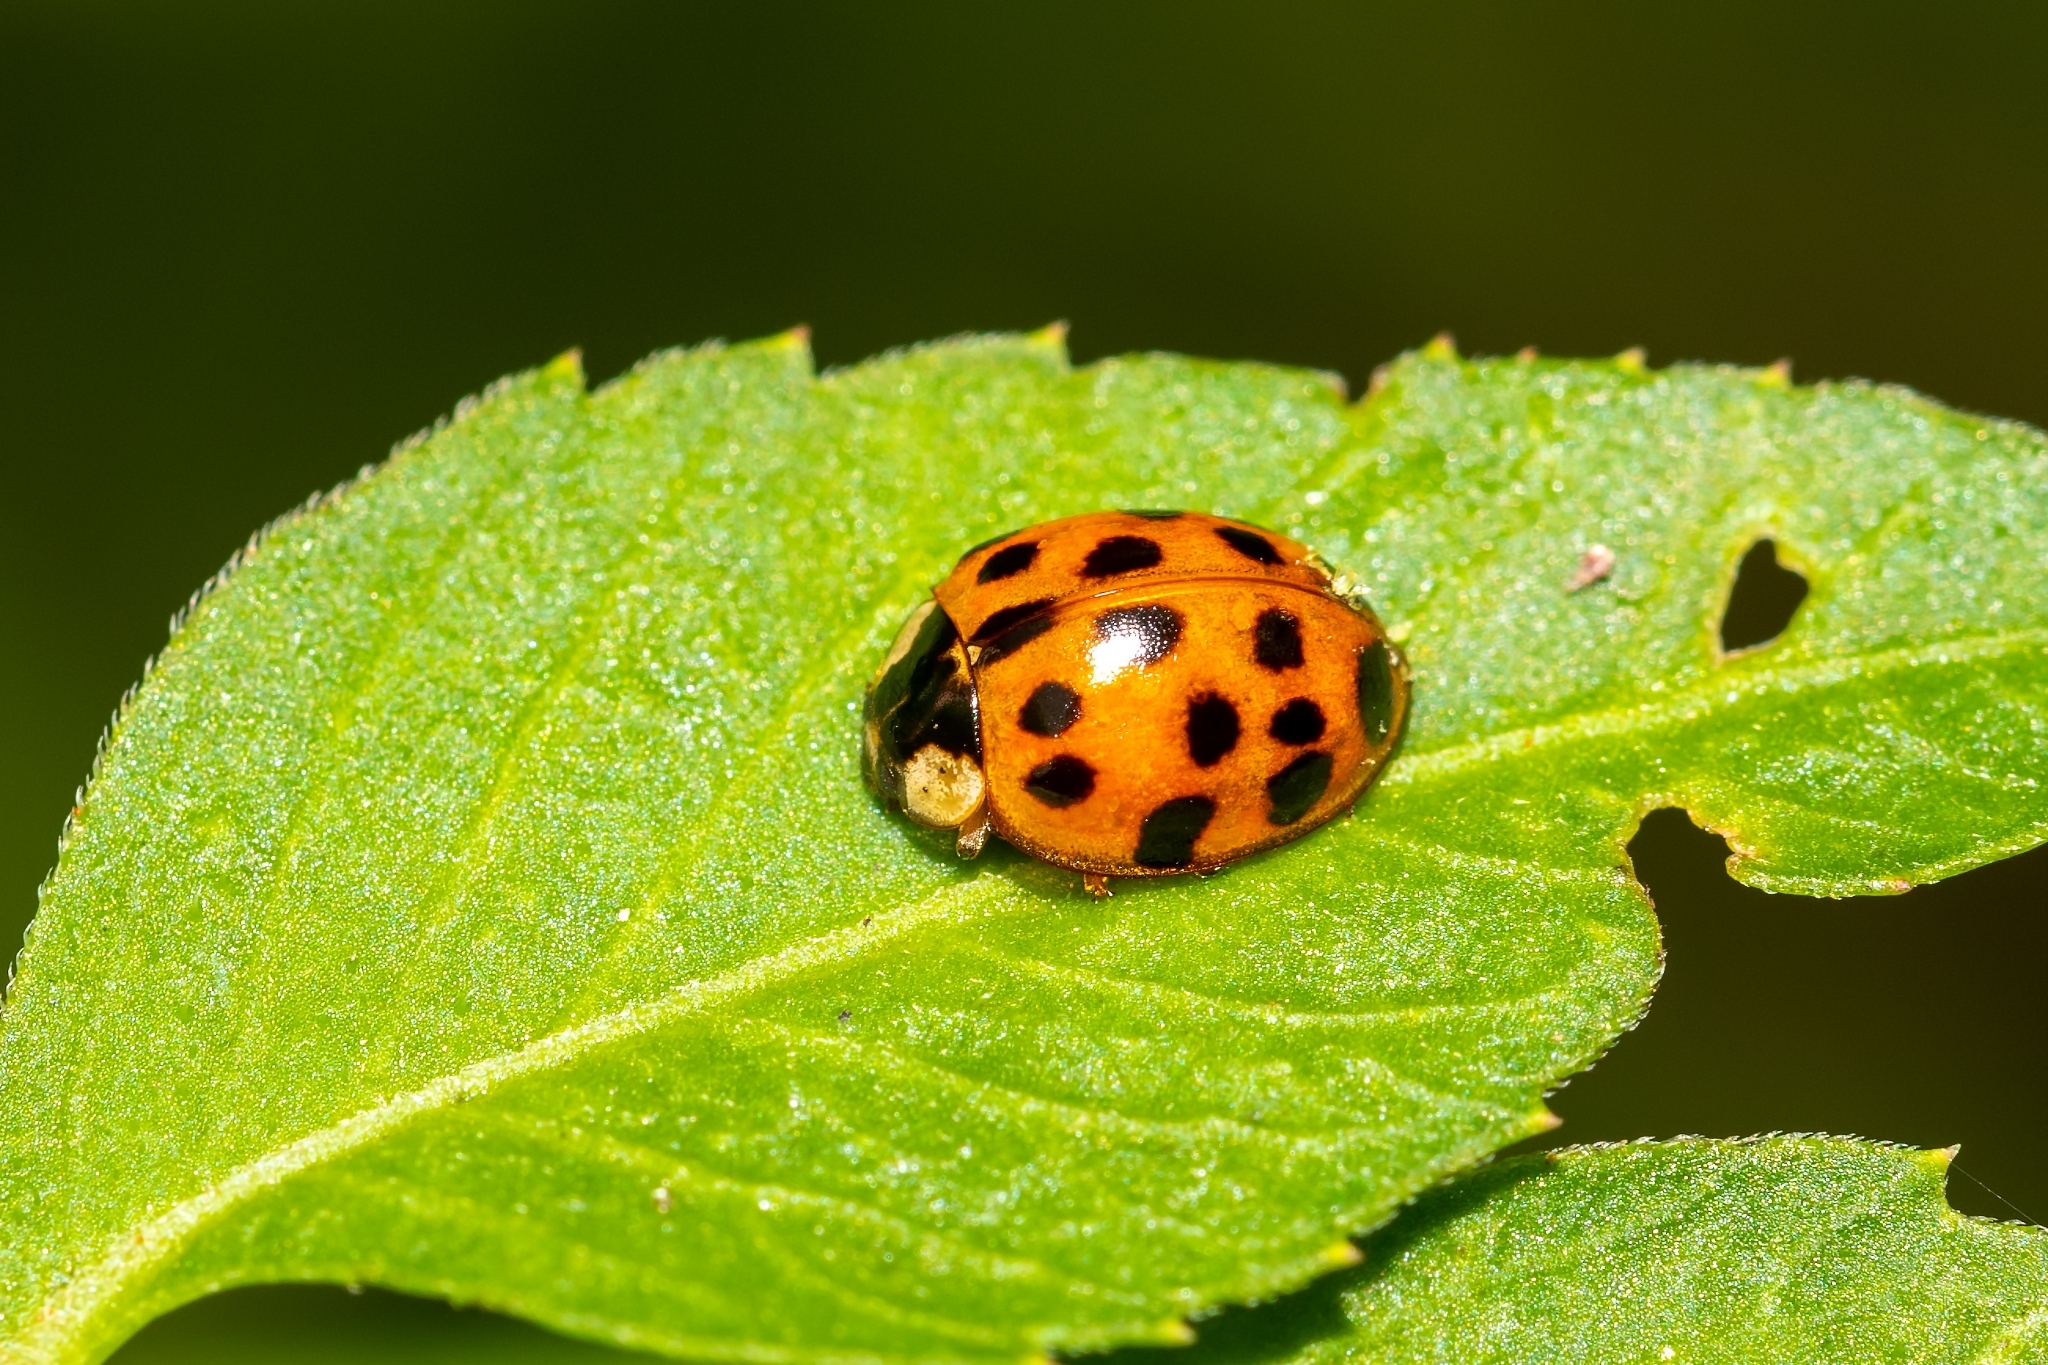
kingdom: Animalia
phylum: Arthropoda
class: Insecta
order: Coleoptera
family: Coccinellidae
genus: Harmonia
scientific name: Harmonia axyridis
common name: Harlequin ladybird
